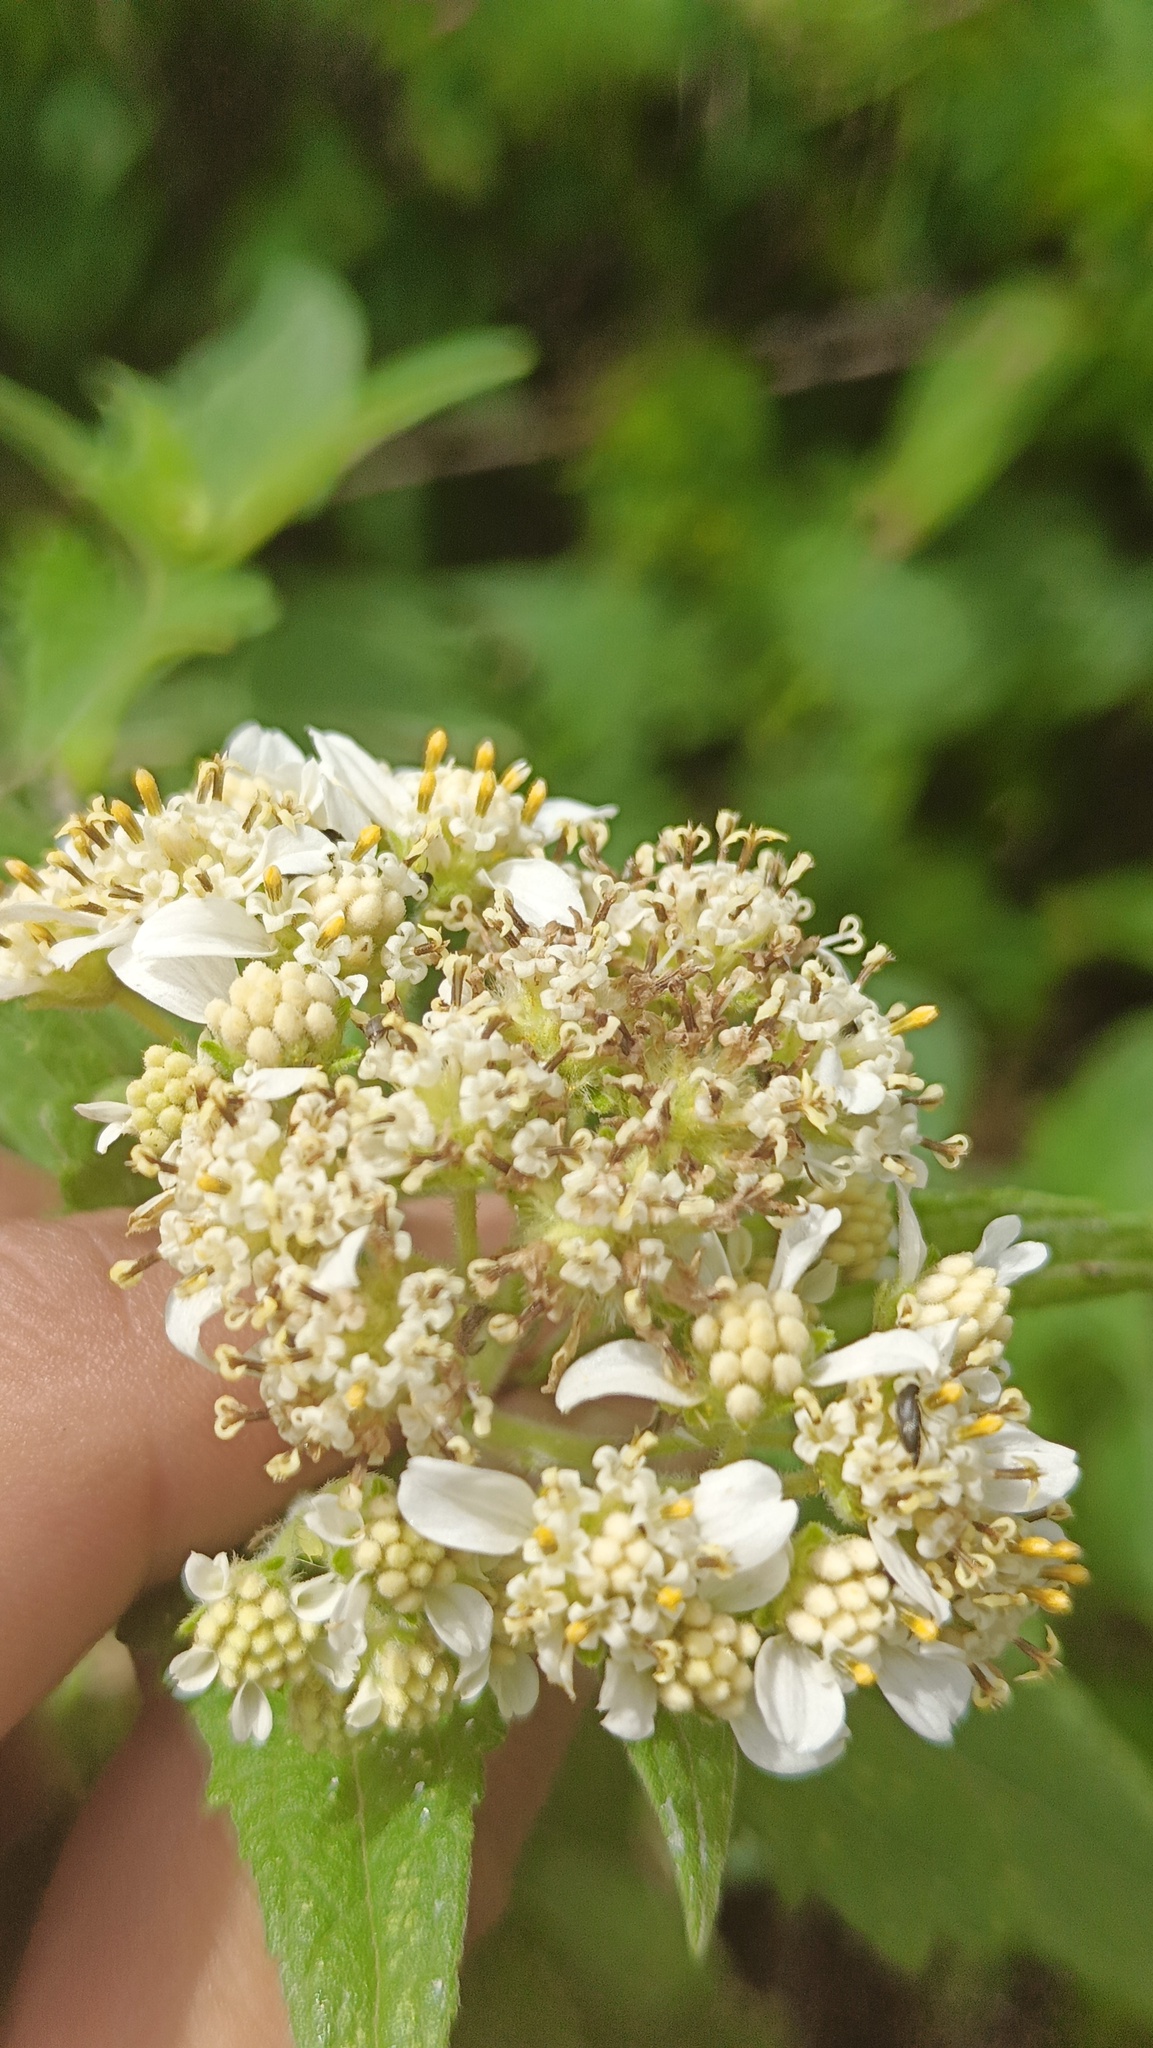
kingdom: Plantae
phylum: Tracheophyta
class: Magnoliopsida
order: Asterales
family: Asteraceae
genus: Montanoa
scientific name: Montanoa tomentosa
